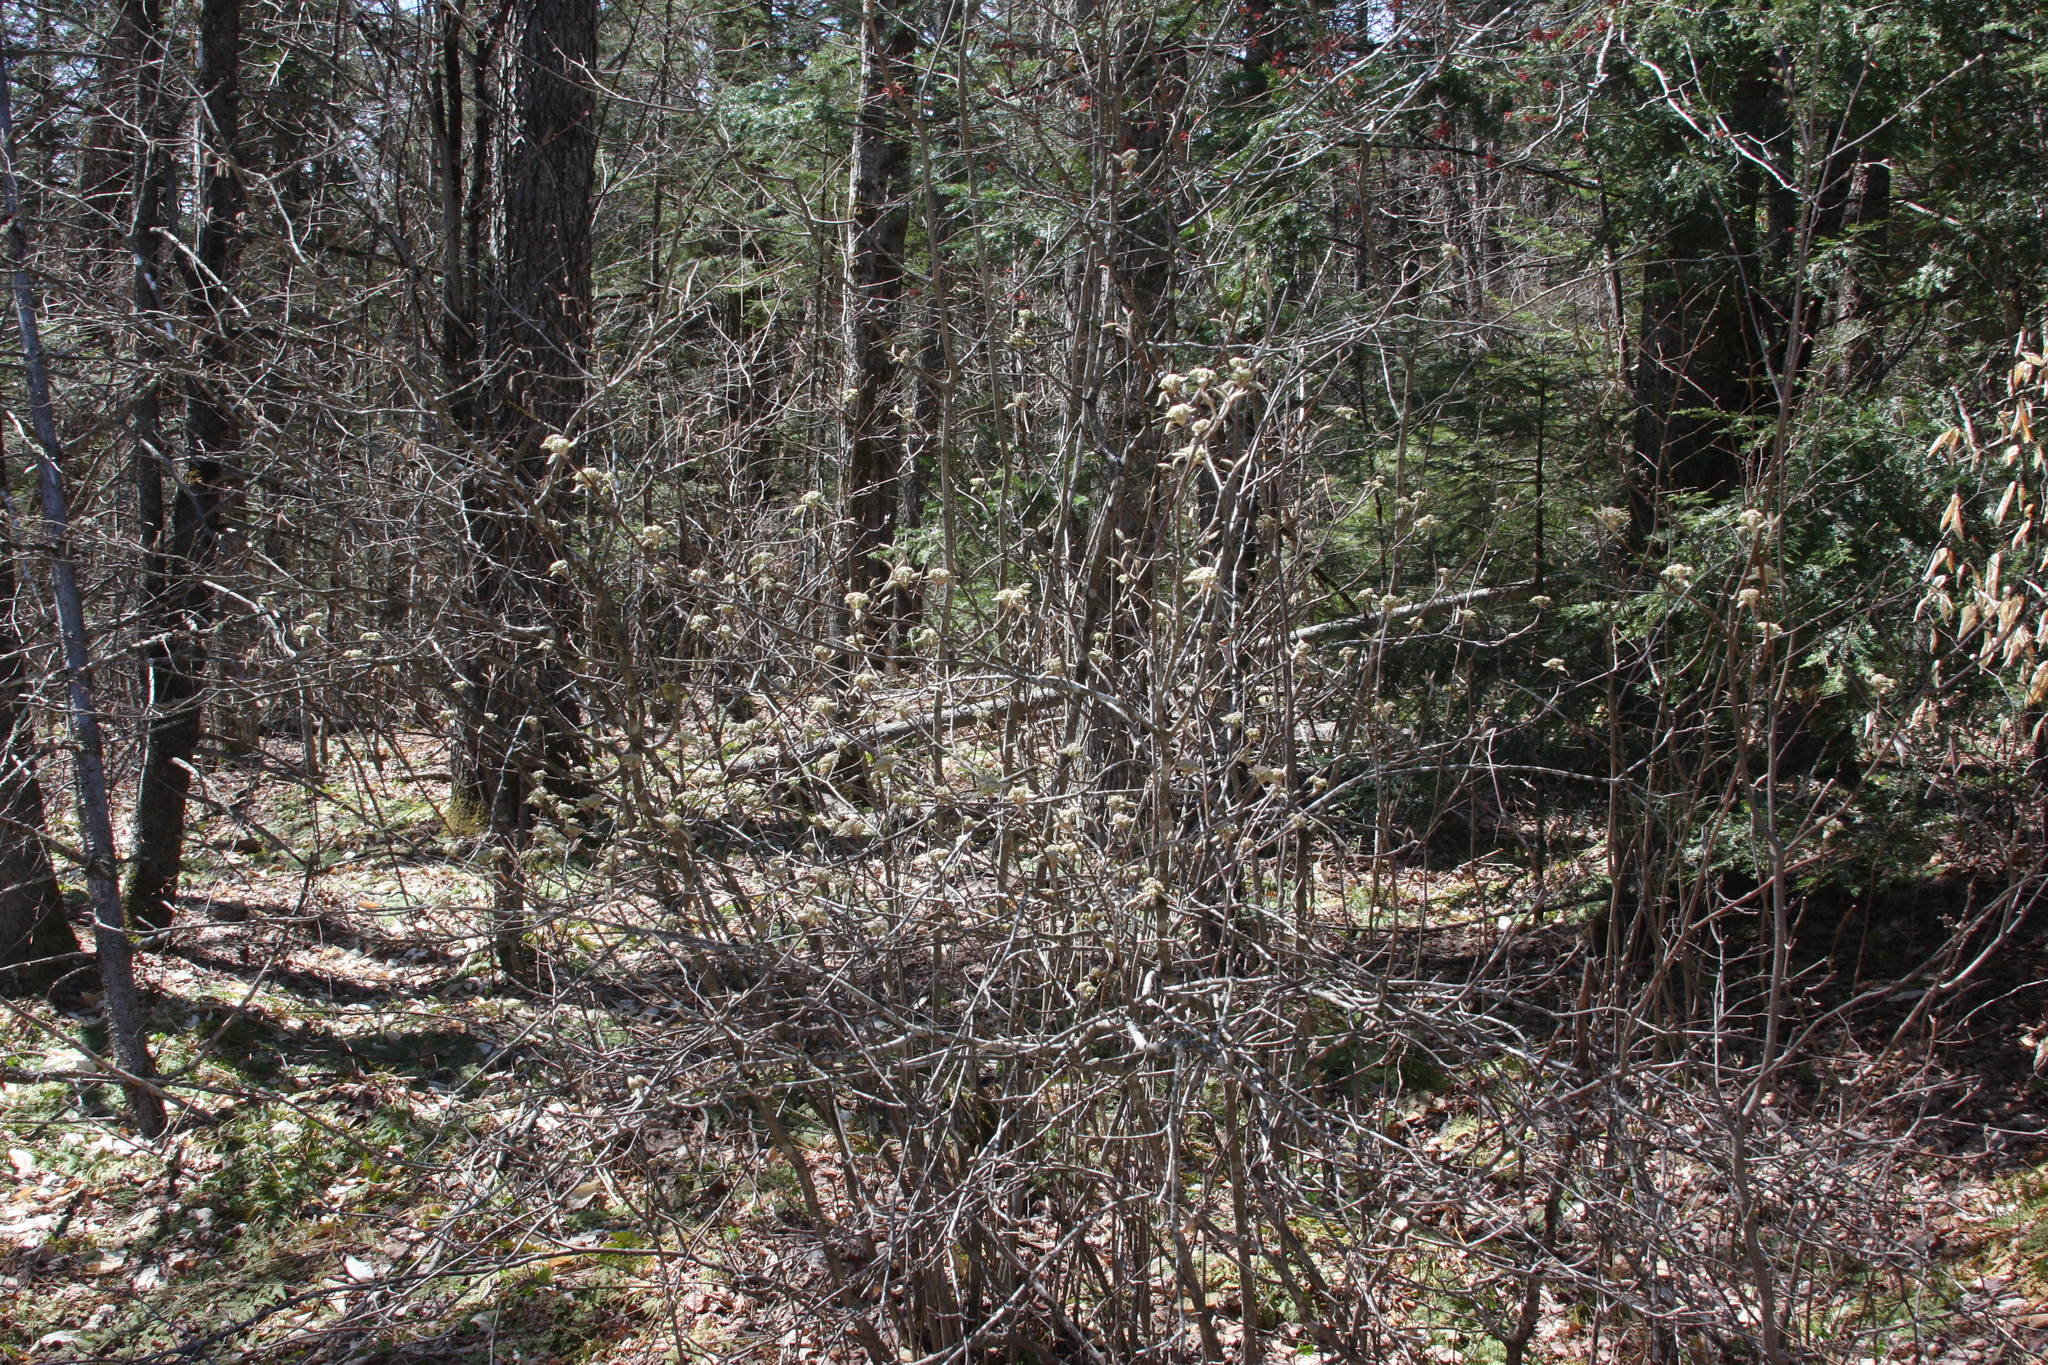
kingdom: Plantae
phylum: Tracheophyta
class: Magnoliopsida
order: Dipsacales
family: Viburnaceae
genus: Viburnum
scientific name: Viburnum lantanoides
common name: Hobblebush
